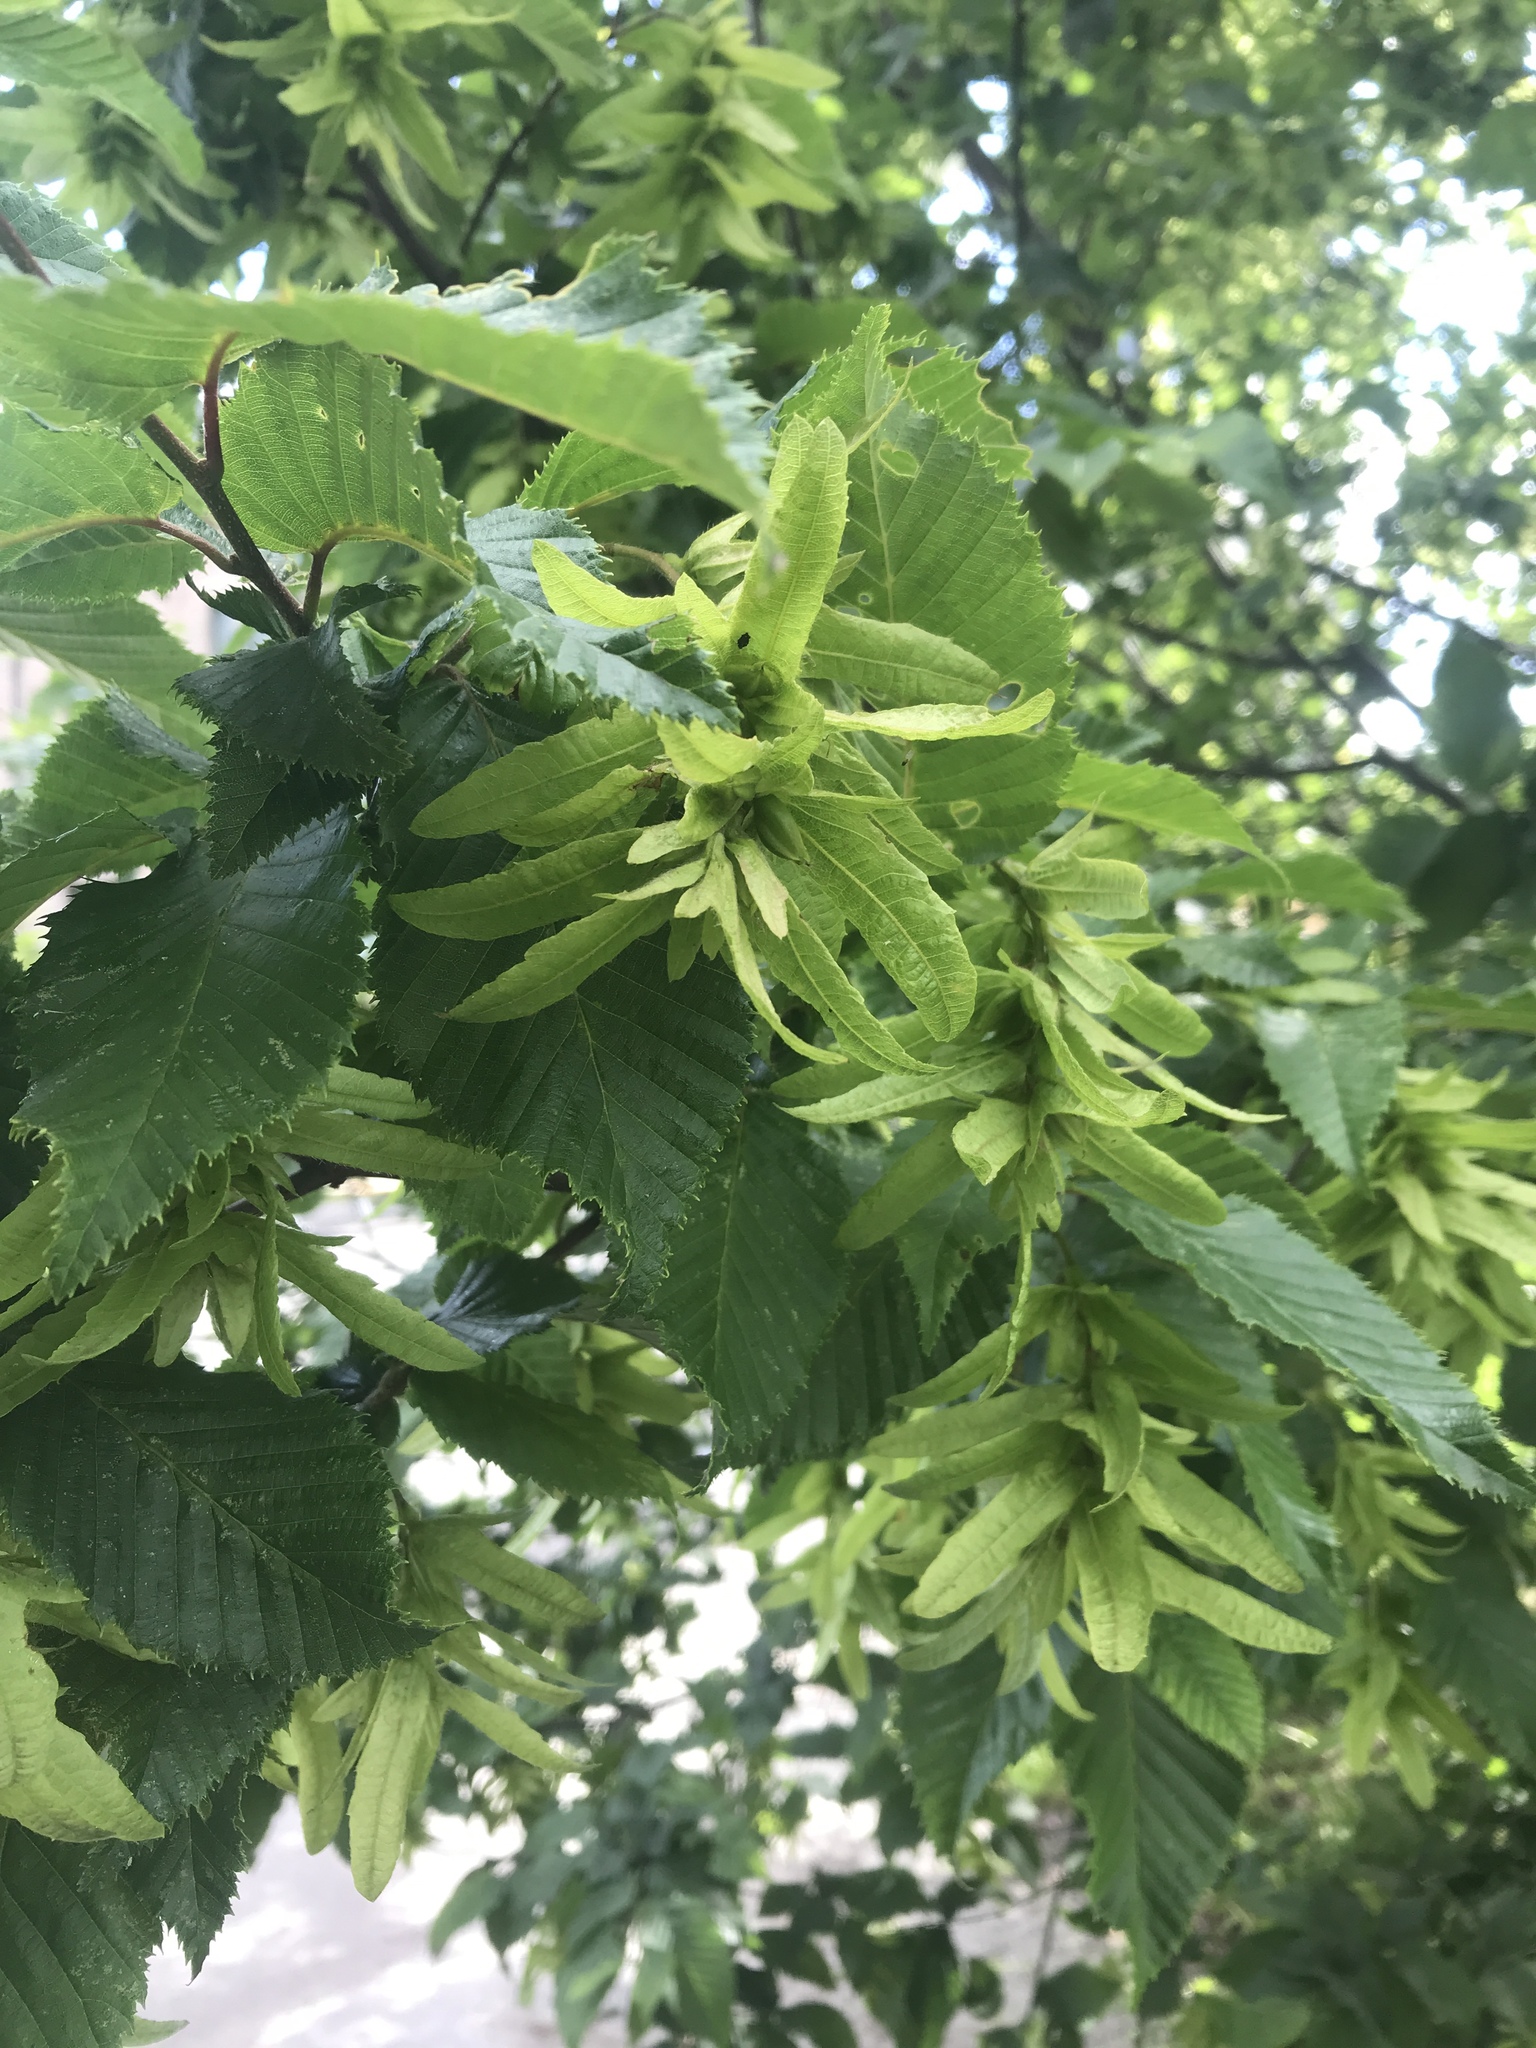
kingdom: Plantae
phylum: Tracheophyta
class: Magnoliopsida
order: Fagales
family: Betulaceae
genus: Carpinus
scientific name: Carpinus betulus
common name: Hornbeam
